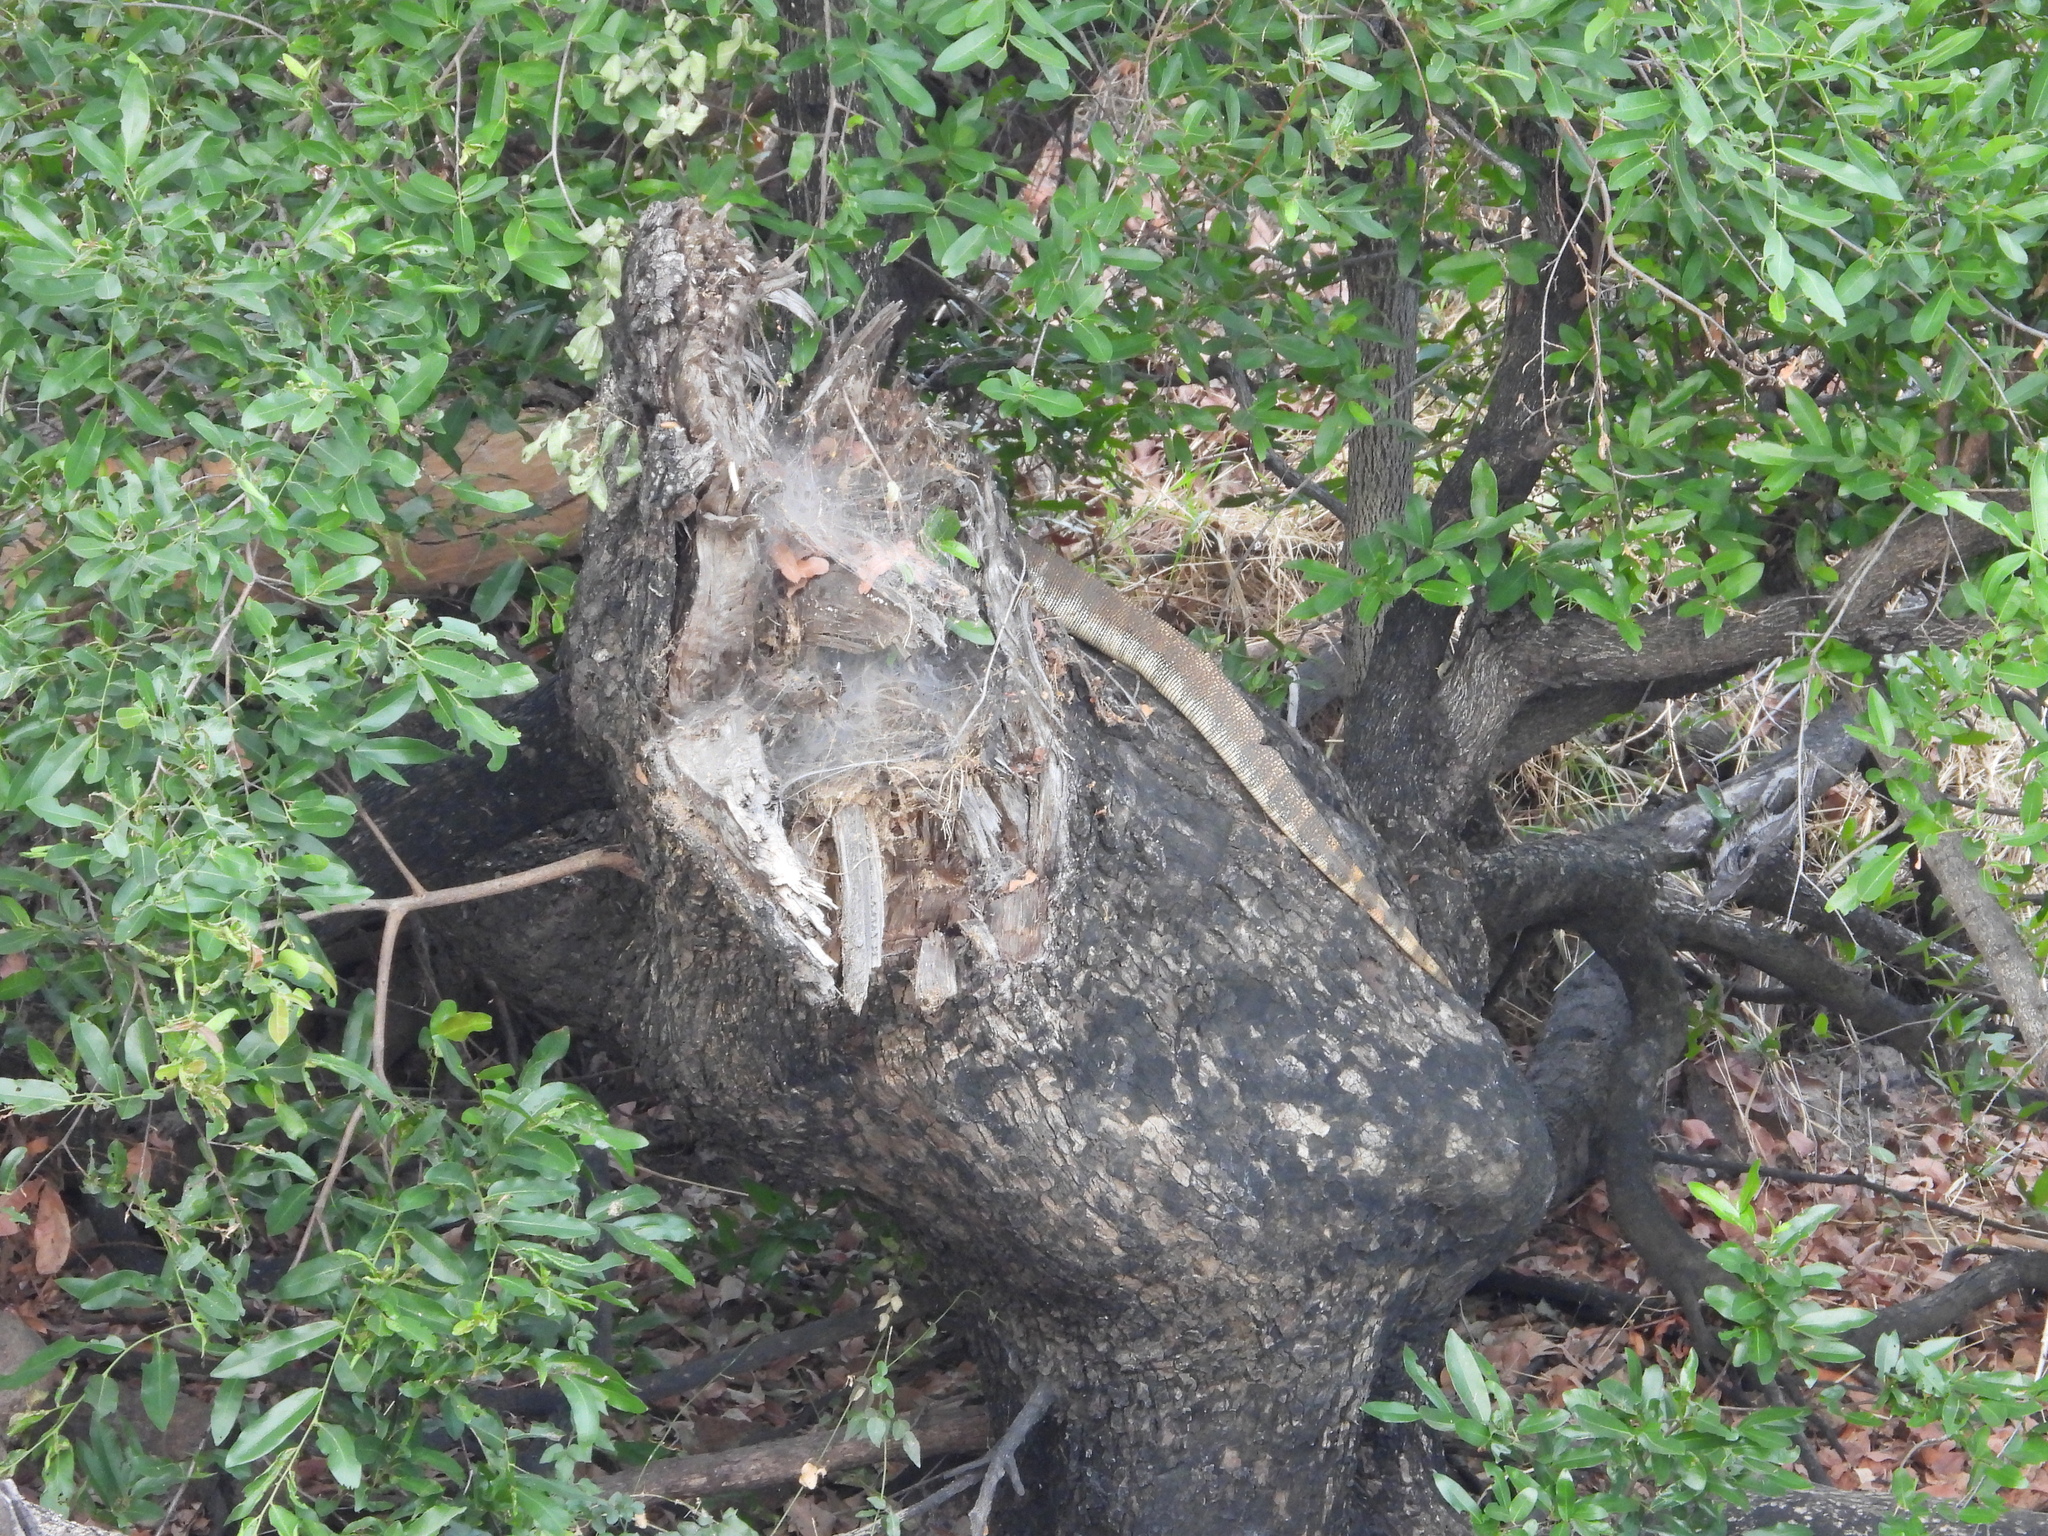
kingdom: Animalia
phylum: Chordata
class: Squamata
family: Varanidae
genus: Varanus
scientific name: Varanus niloticus
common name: Nile monitor
